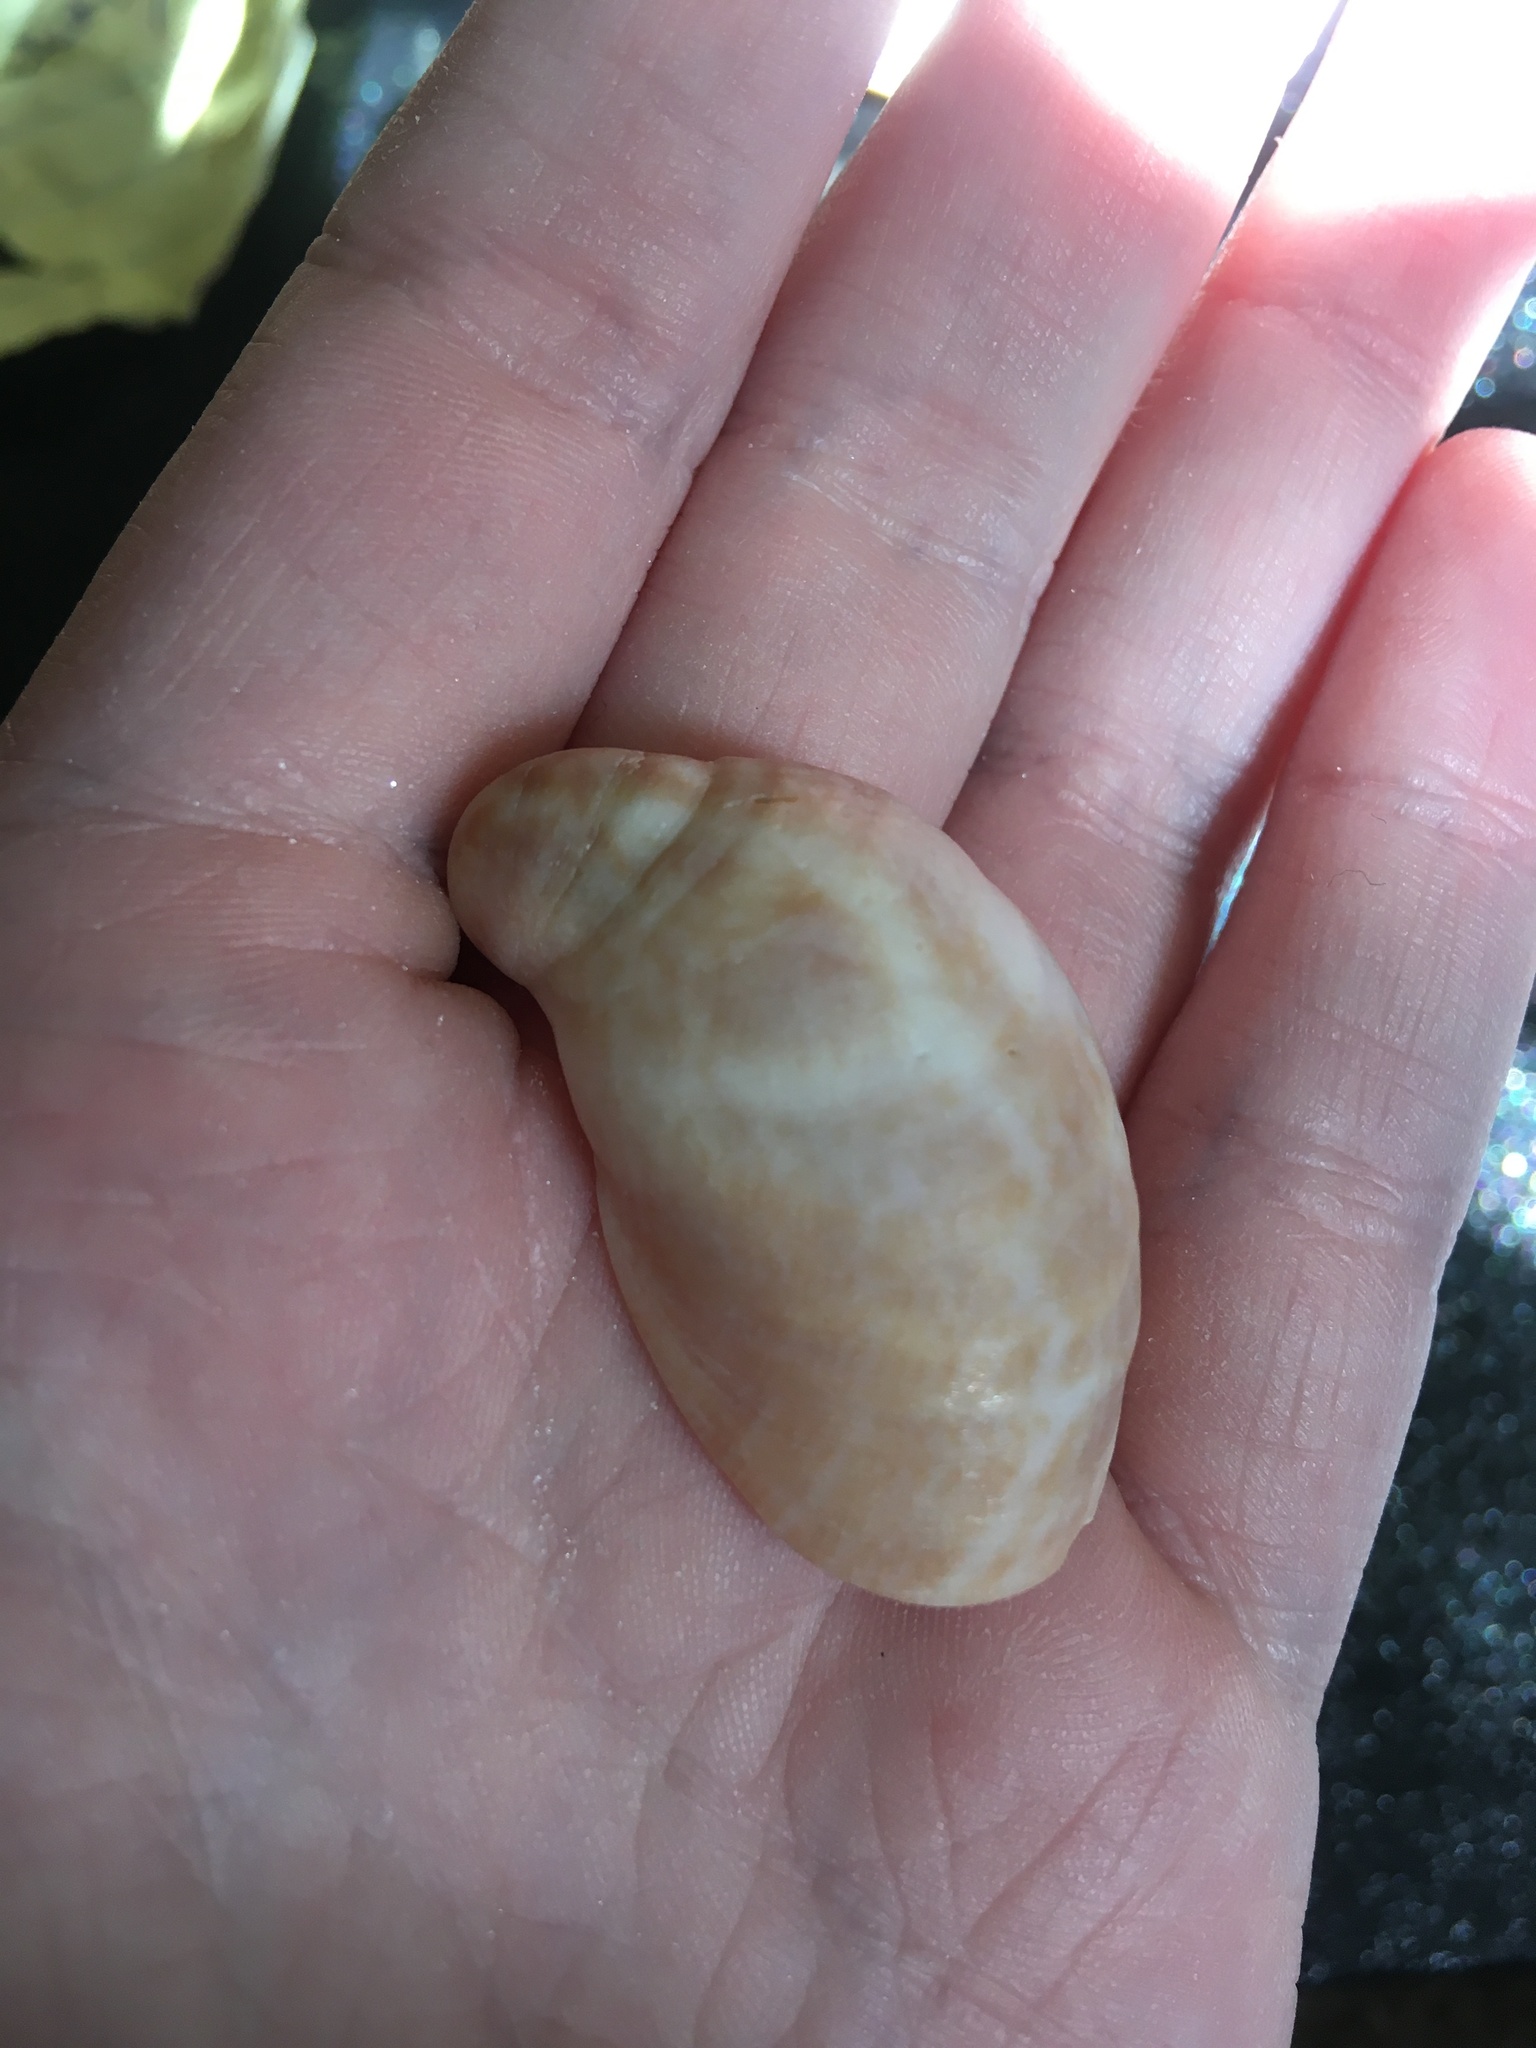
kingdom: Animalia
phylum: Mollusca
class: Gastropoda
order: Littorinimorpha
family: Calyptraeidae
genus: Crepidula
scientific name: Crepidula fornicata
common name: Slipper limpet
